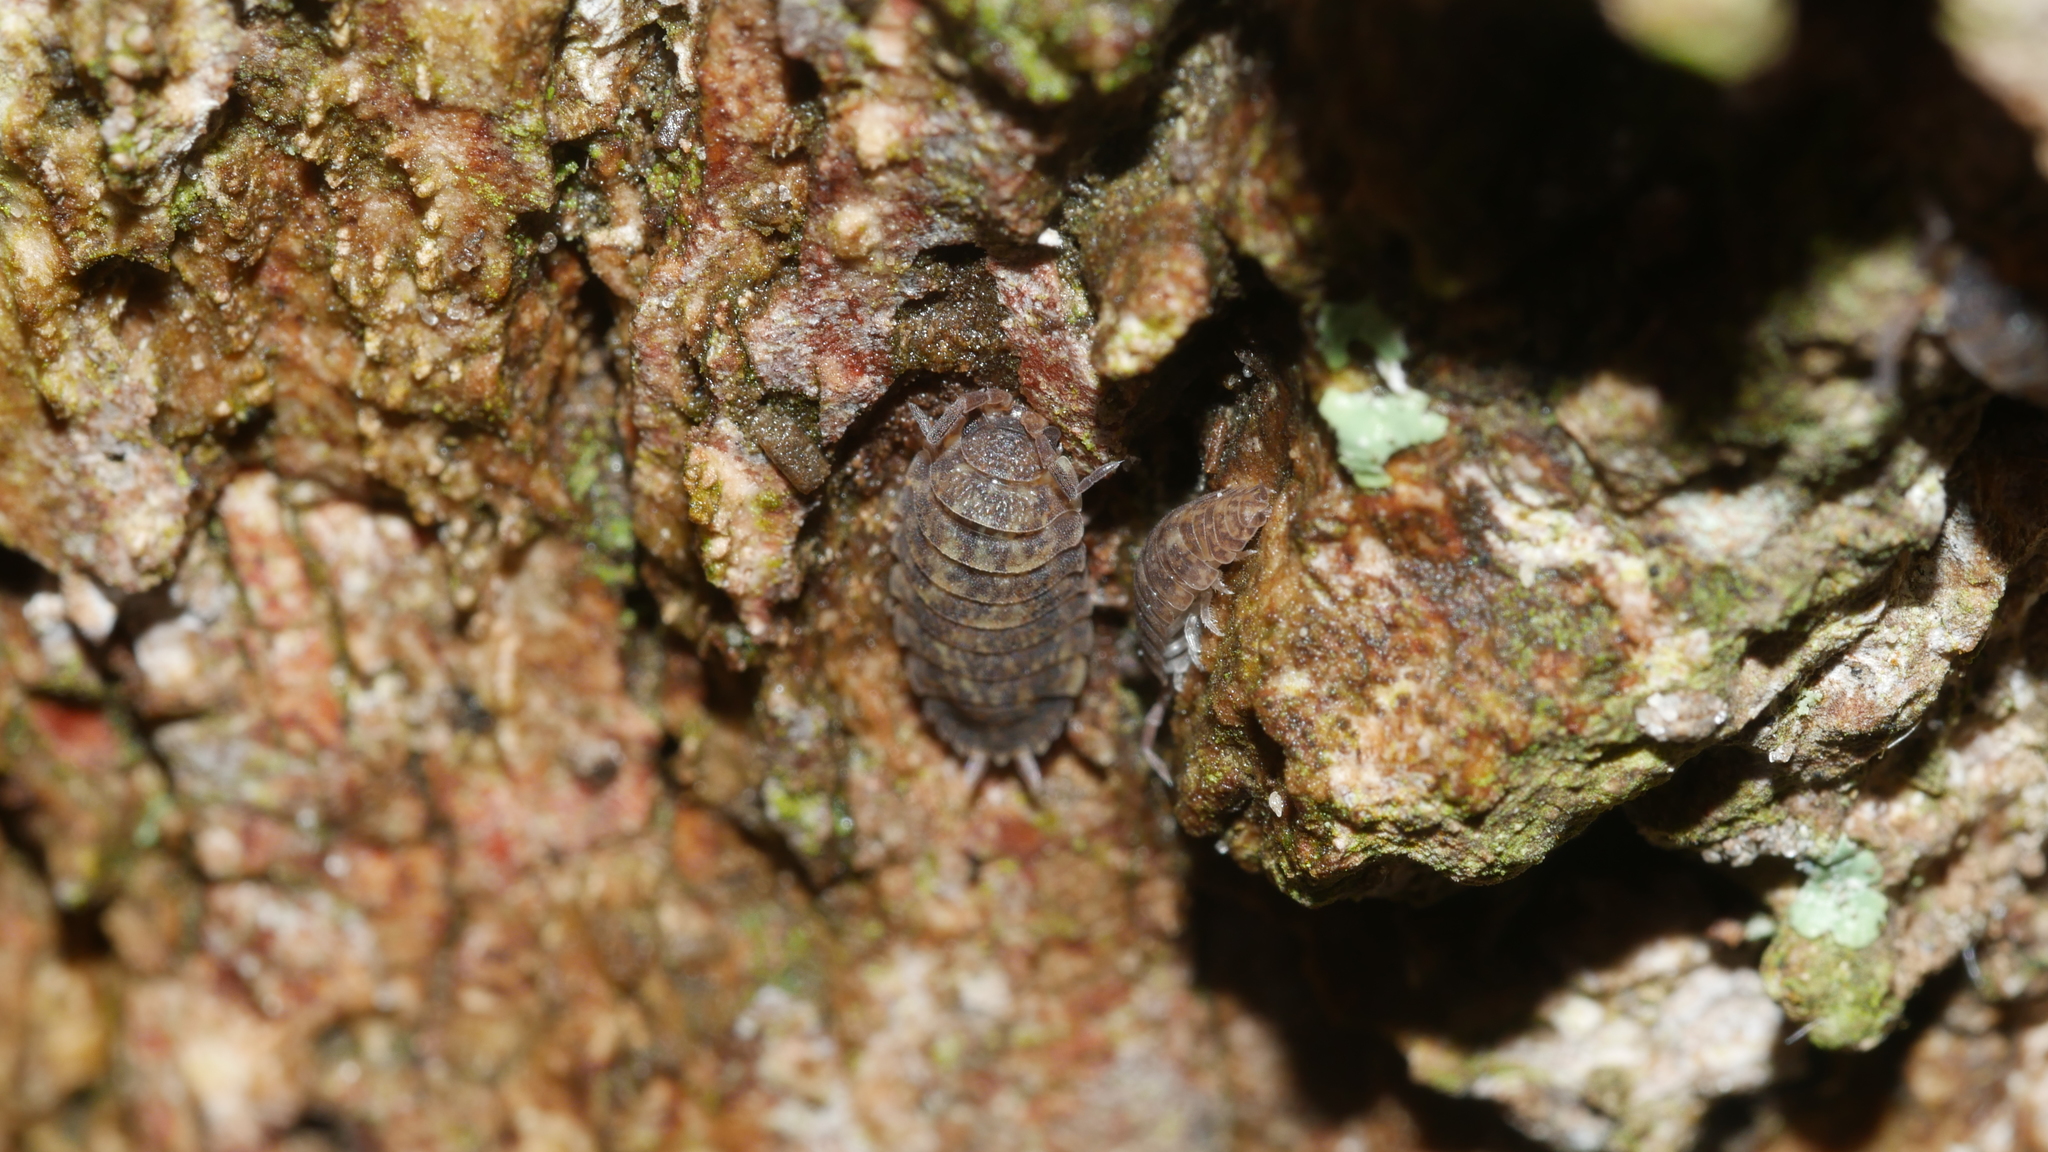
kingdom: Animalia
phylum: Arthropoda
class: Malacostraca
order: Isopoda
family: Porcellionidae
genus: Porcellio
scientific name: Porcellio scaber
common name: Common rough woodlouse
